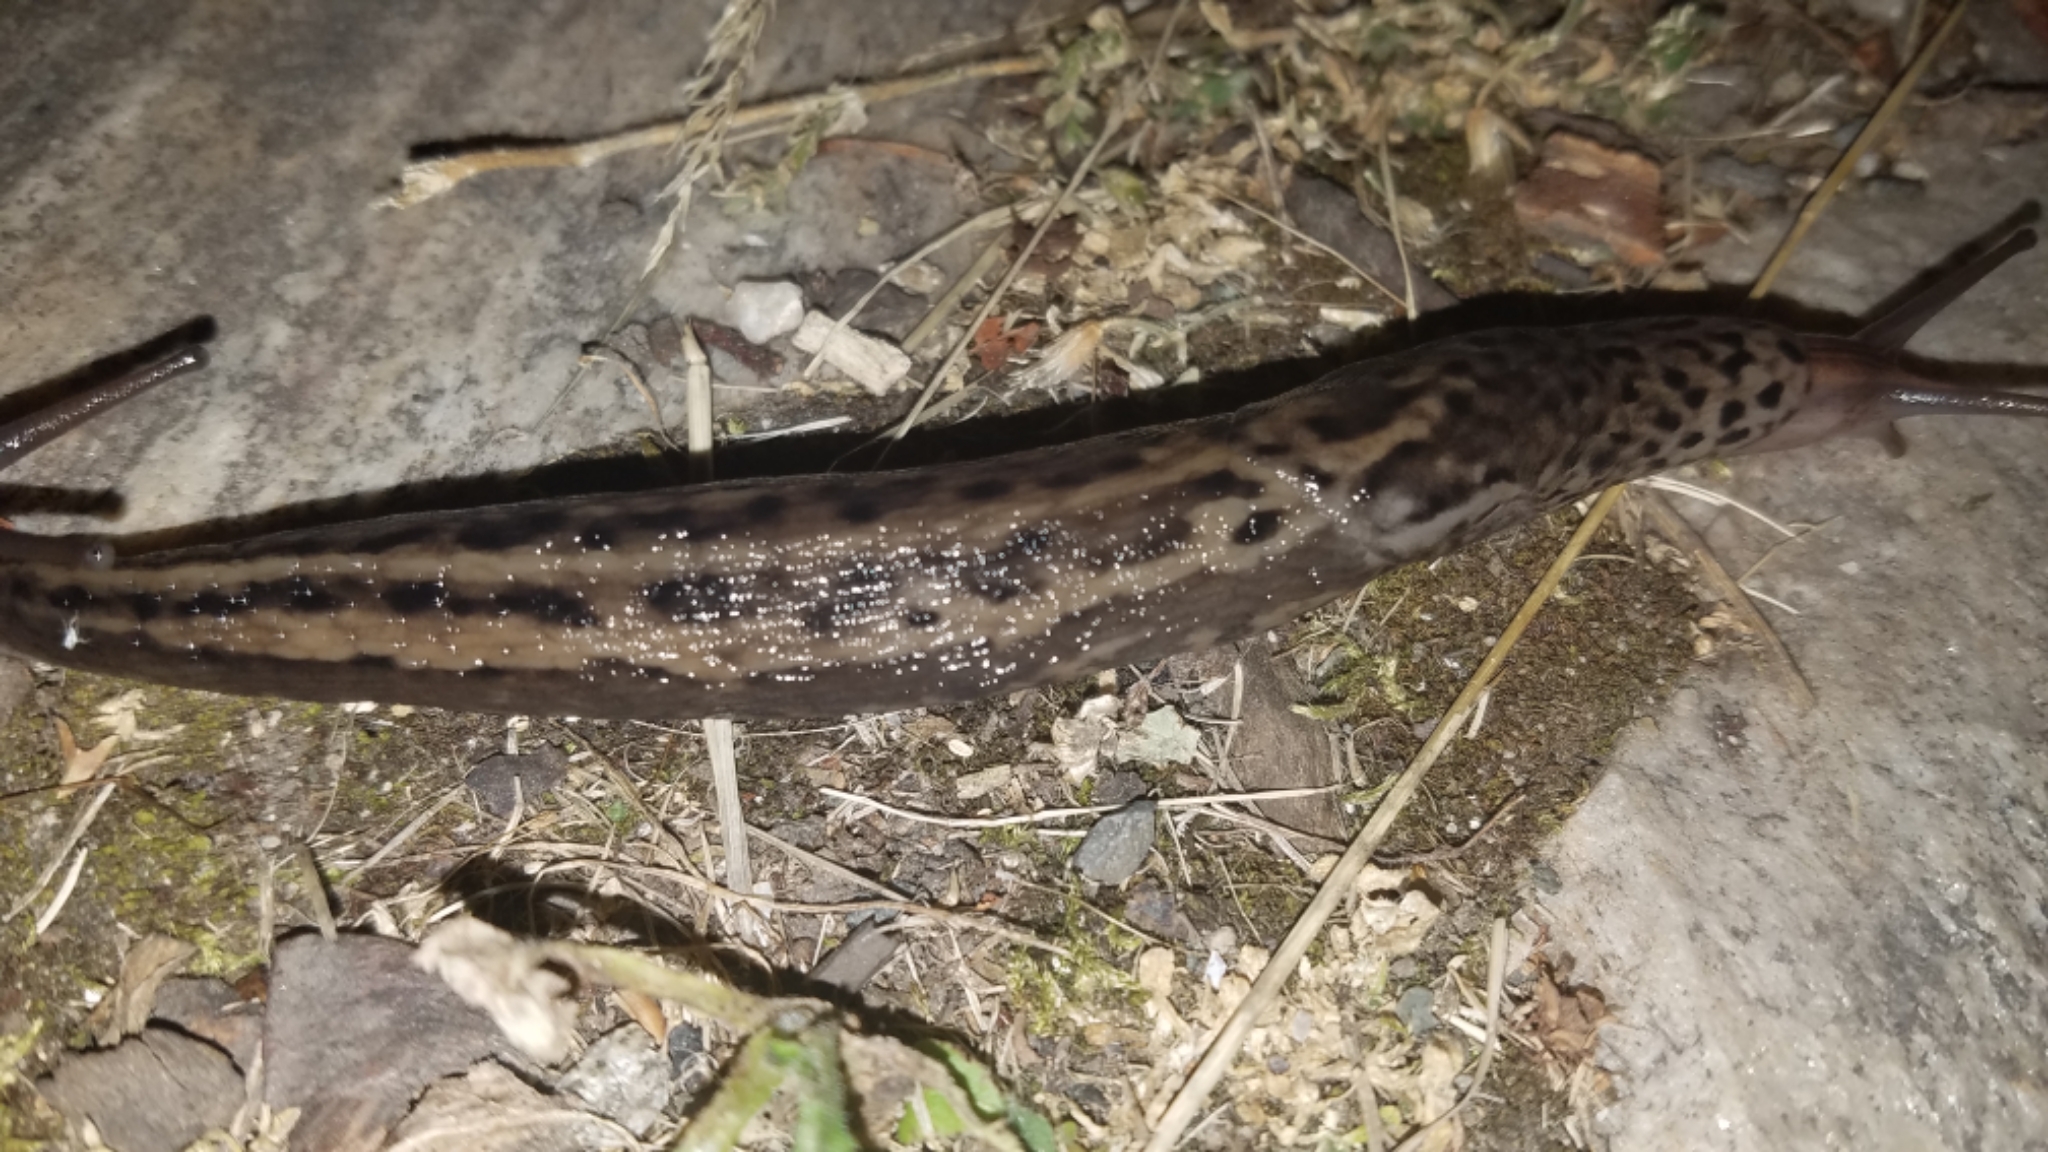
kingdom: Animalia
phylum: Mollusca
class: Gastropoda
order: Stylommatophora
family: Limacidae
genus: Limax
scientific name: Limax maximus
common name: Great grey slug
